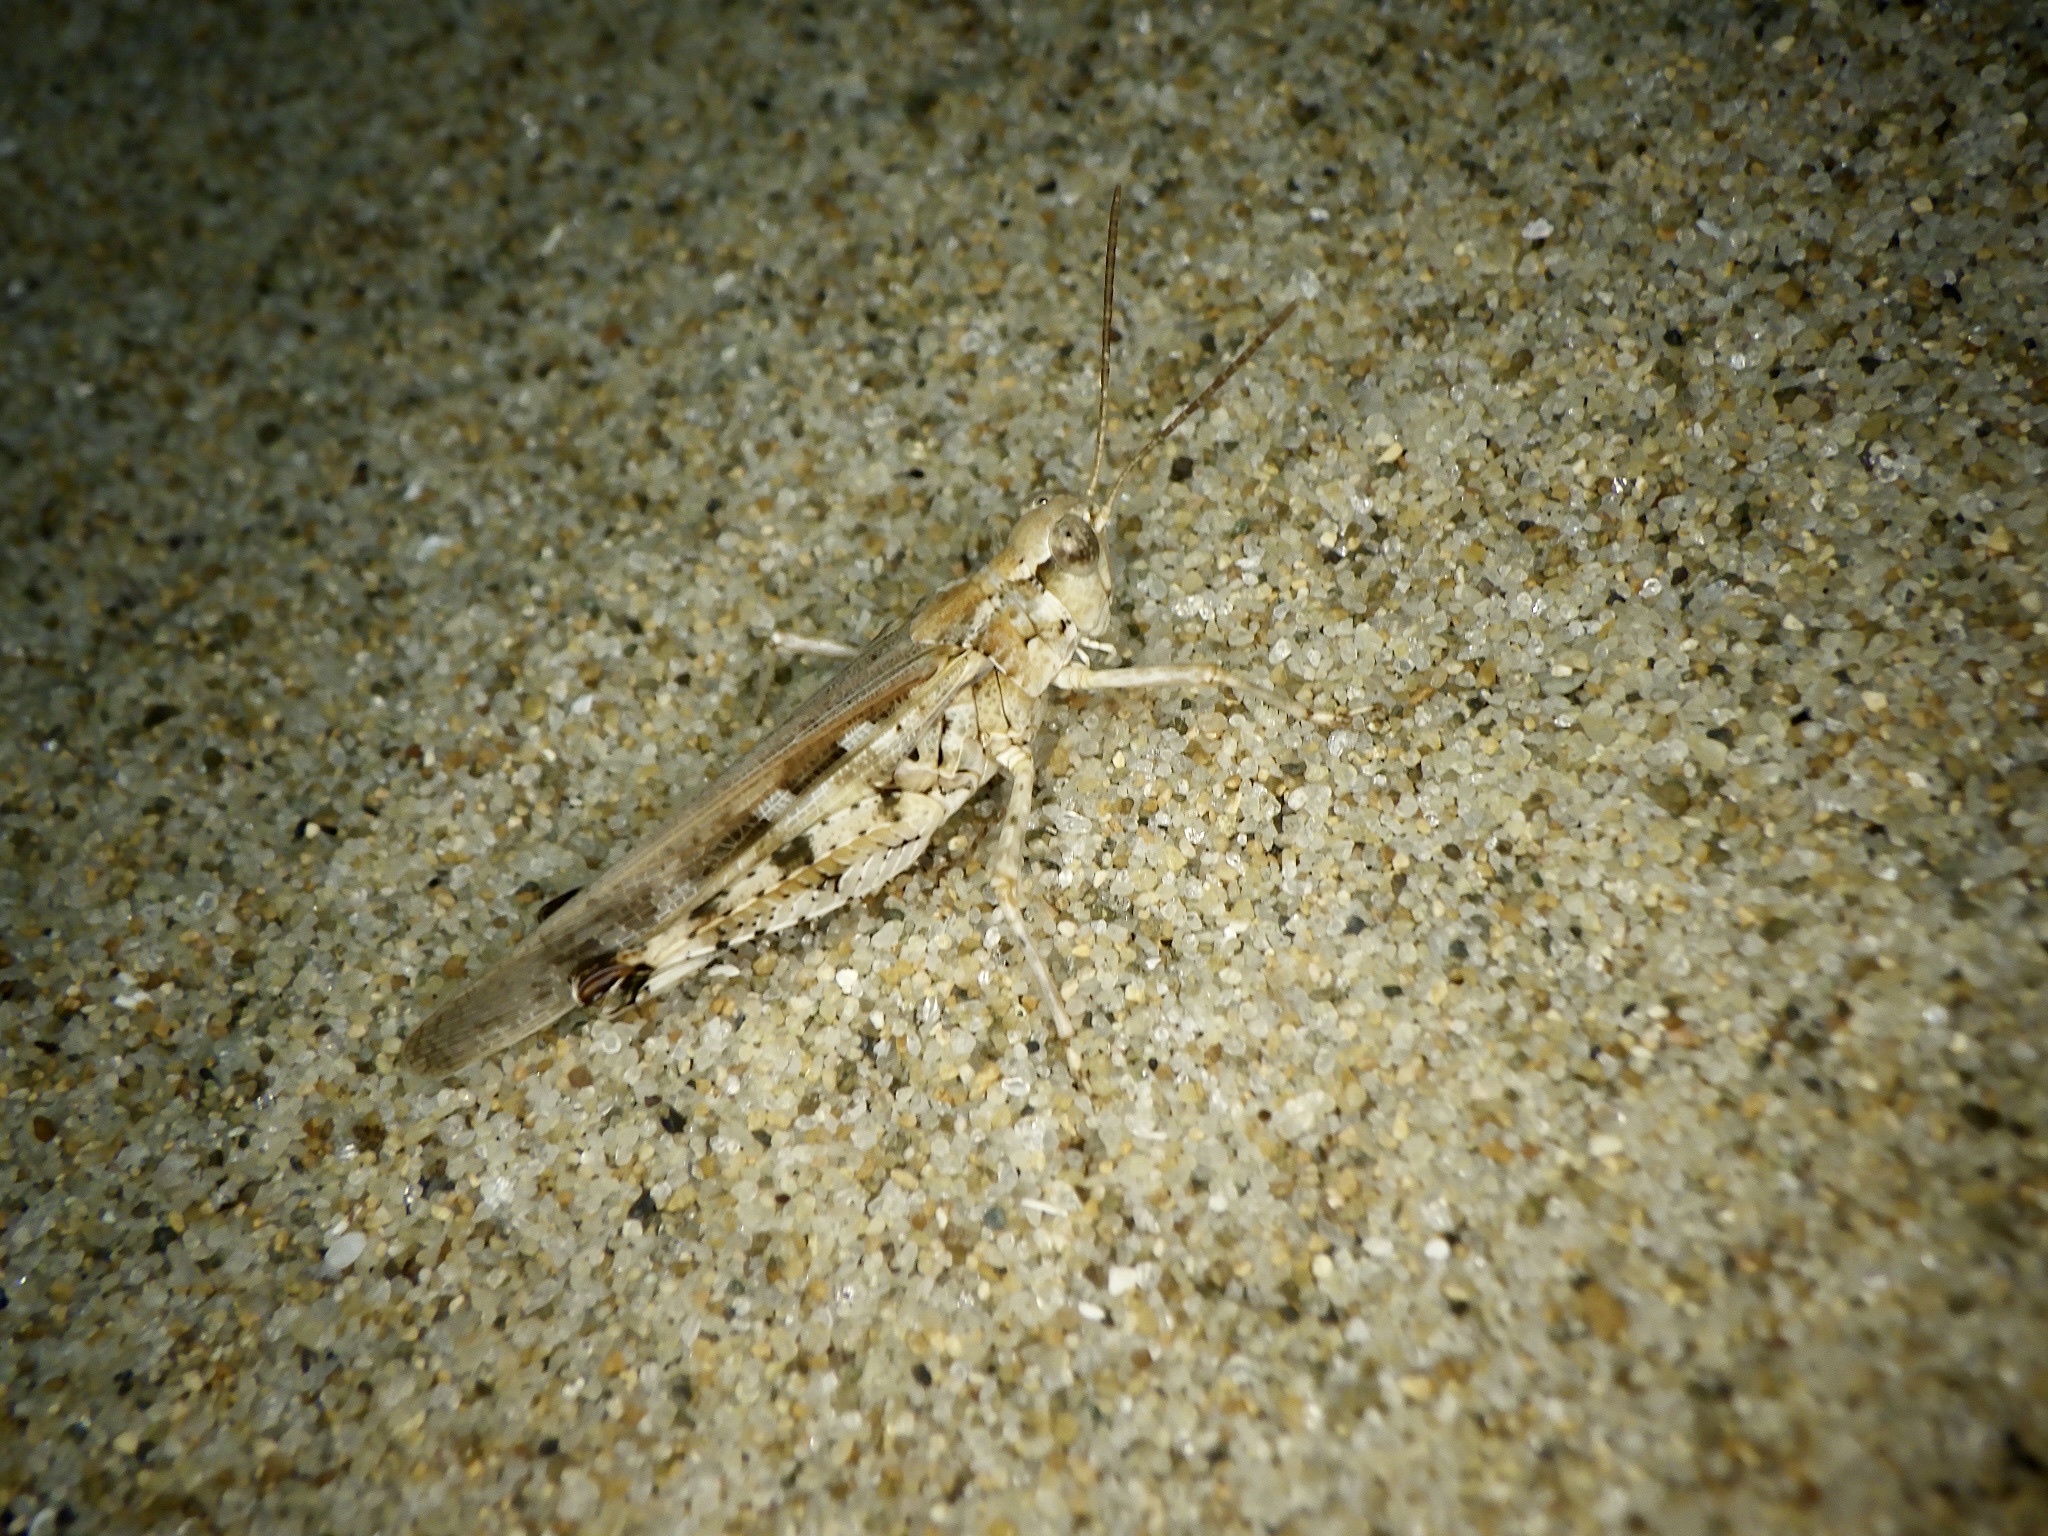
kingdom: Animalia
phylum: Arthropoda
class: Insecta
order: Orthoptera
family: Acrididae
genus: Epacromius
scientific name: Epacromius japonicus
